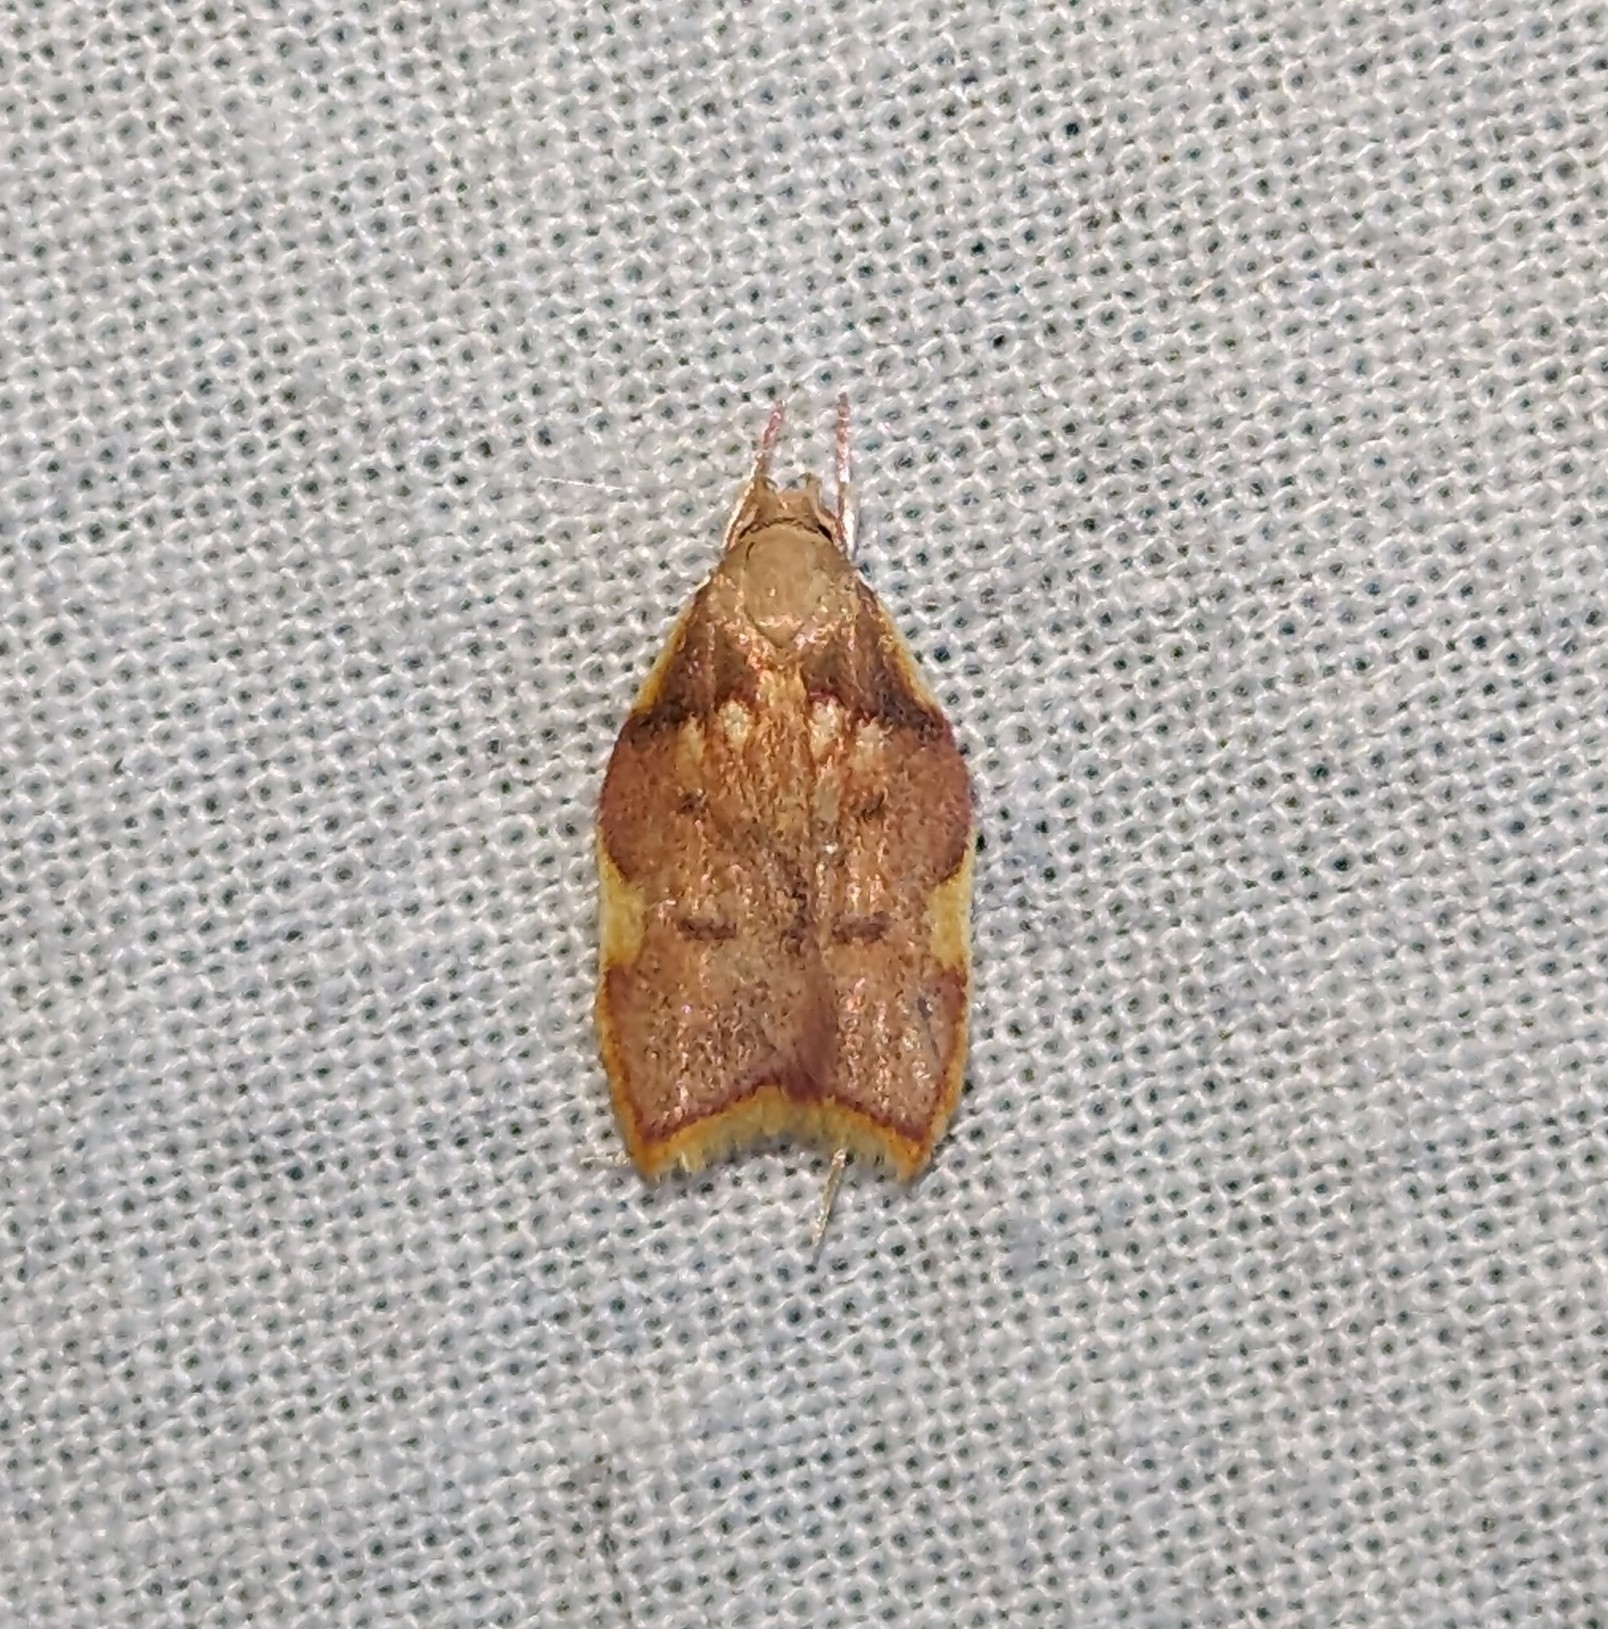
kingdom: Animalia
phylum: Arthropoda
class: Insecta
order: Lepidoptera
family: Peleopodidae
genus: Carcina
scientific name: Carcina quercana
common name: Moth
